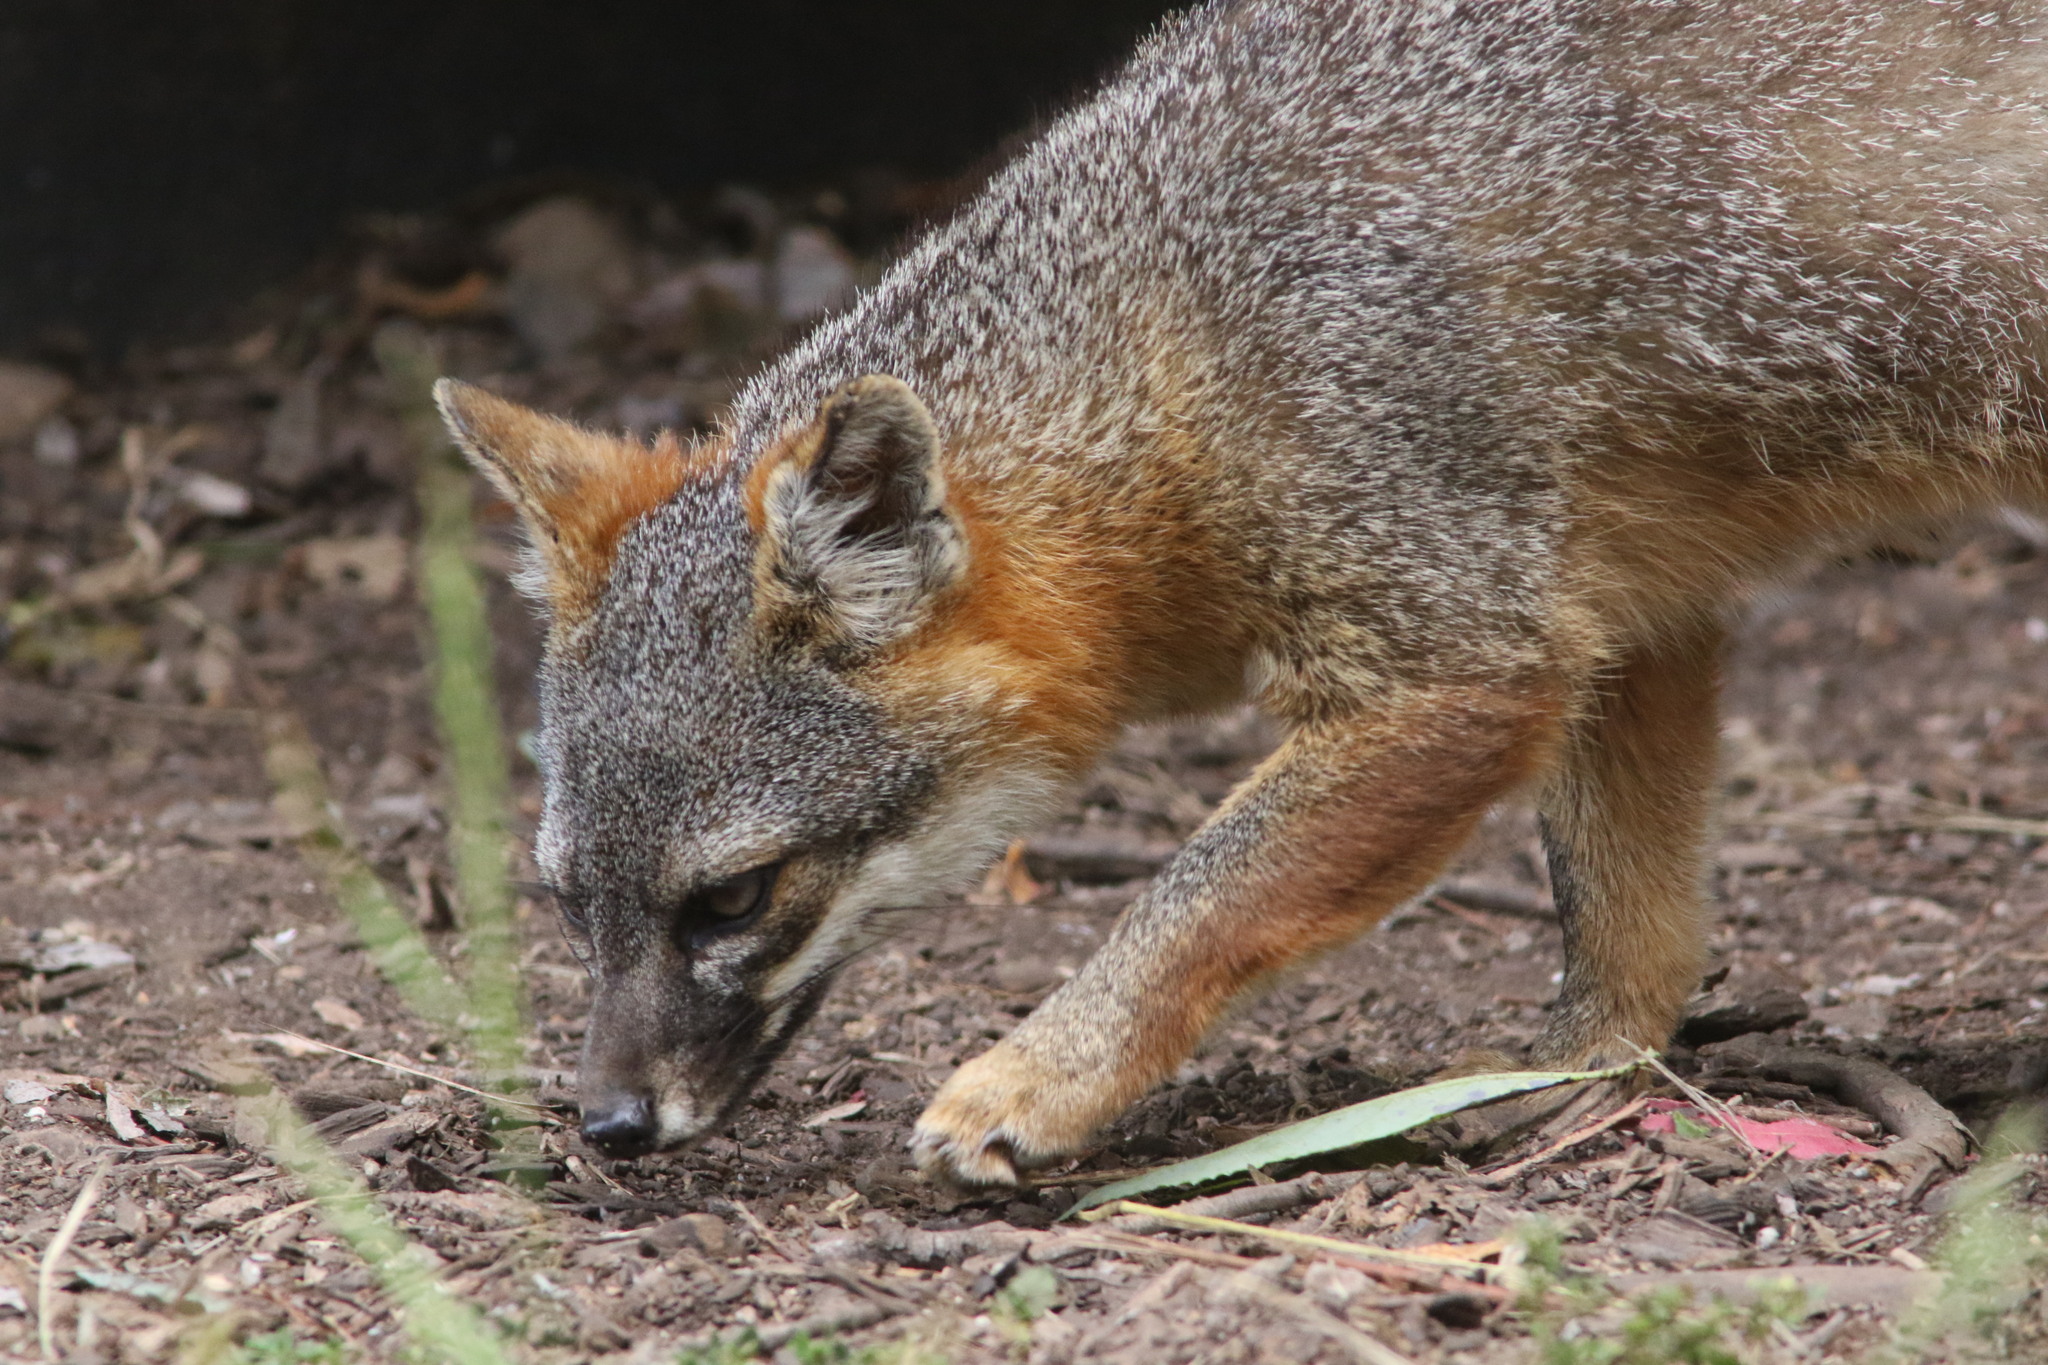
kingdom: Animalia
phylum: Chordata
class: Mammalia
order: Carnivora
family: Canidae
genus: Urocyon
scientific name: Urocyon littoralis
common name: Island gray fox
